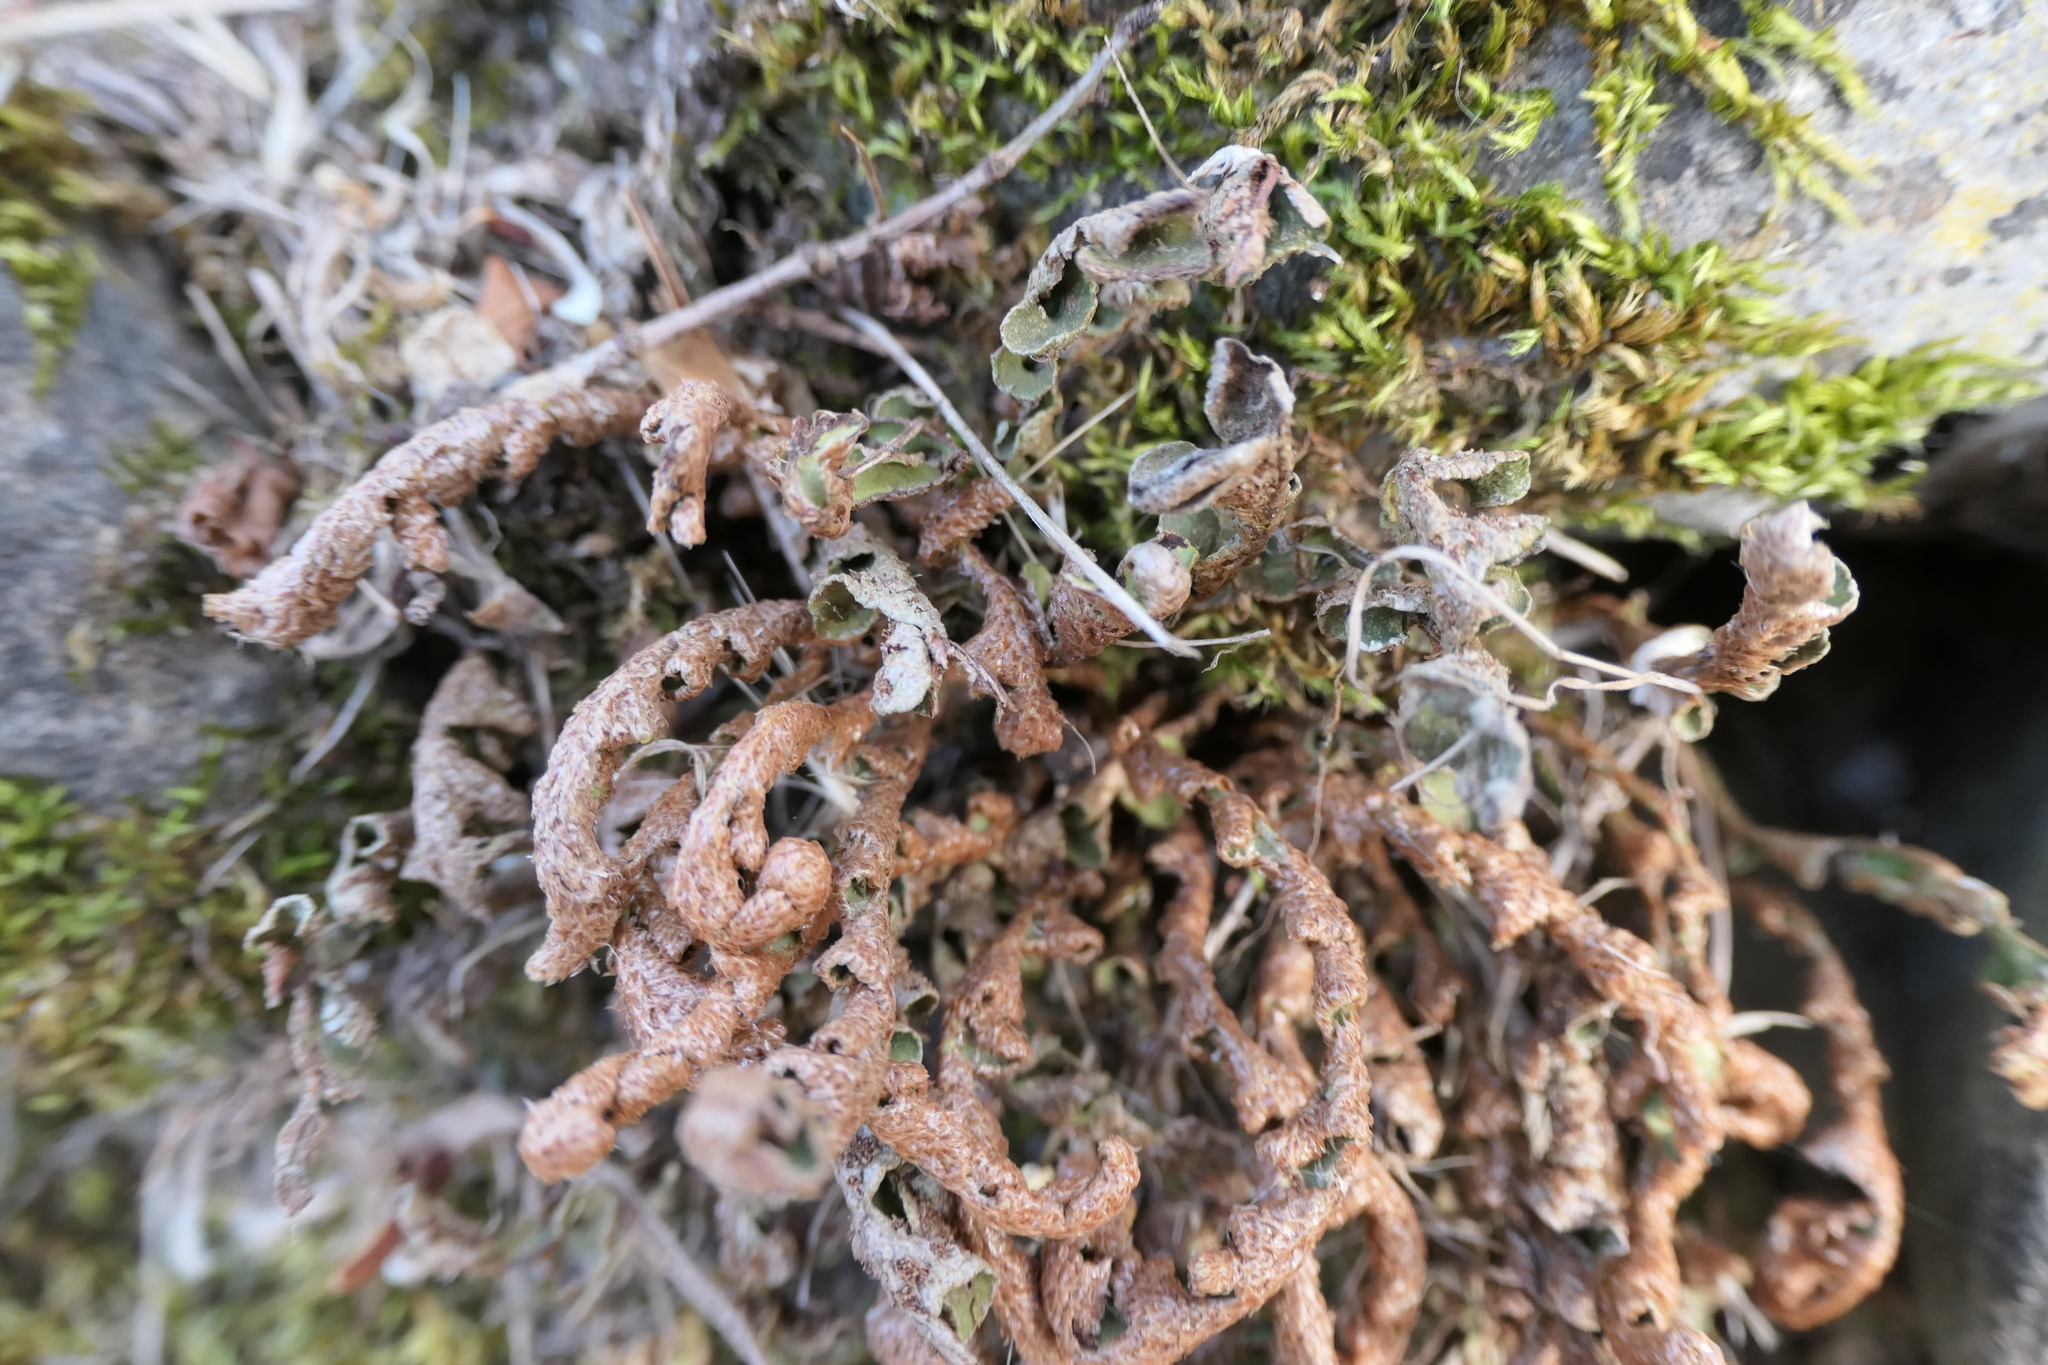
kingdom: Plantae
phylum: Tracheophyta
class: Polypodiopsida
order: Polypodiales
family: Aspleniaceae
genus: Asplenium
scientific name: Asplenium ceterach
